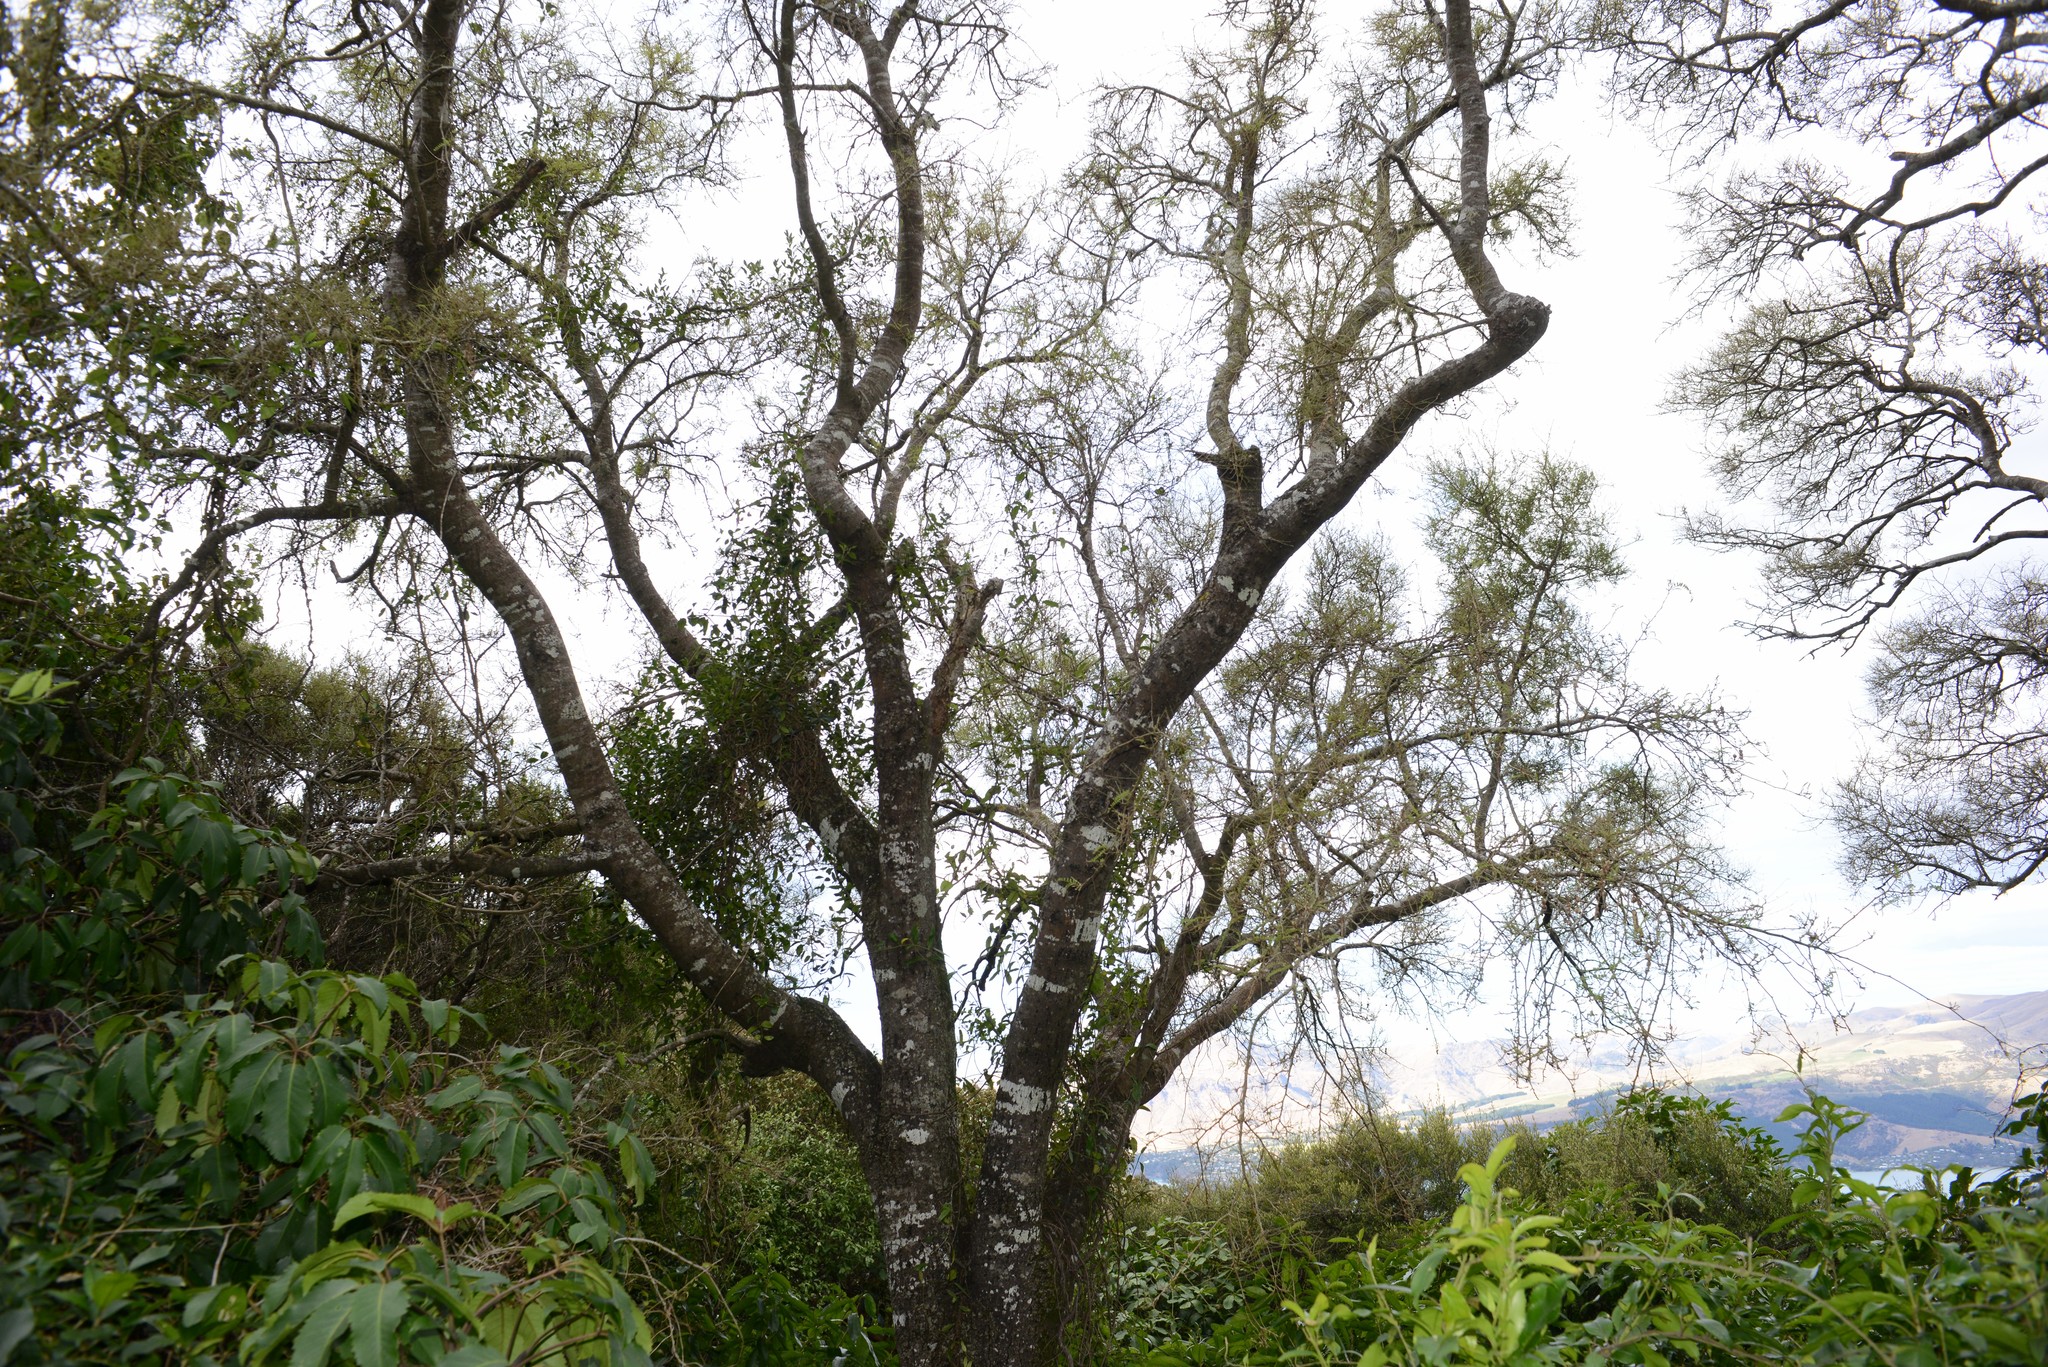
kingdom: Plantae
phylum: Tracheophyta
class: Magnoliopsida
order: Fabales
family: Fabaceae
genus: Sophora
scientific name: Sophora microphylla
